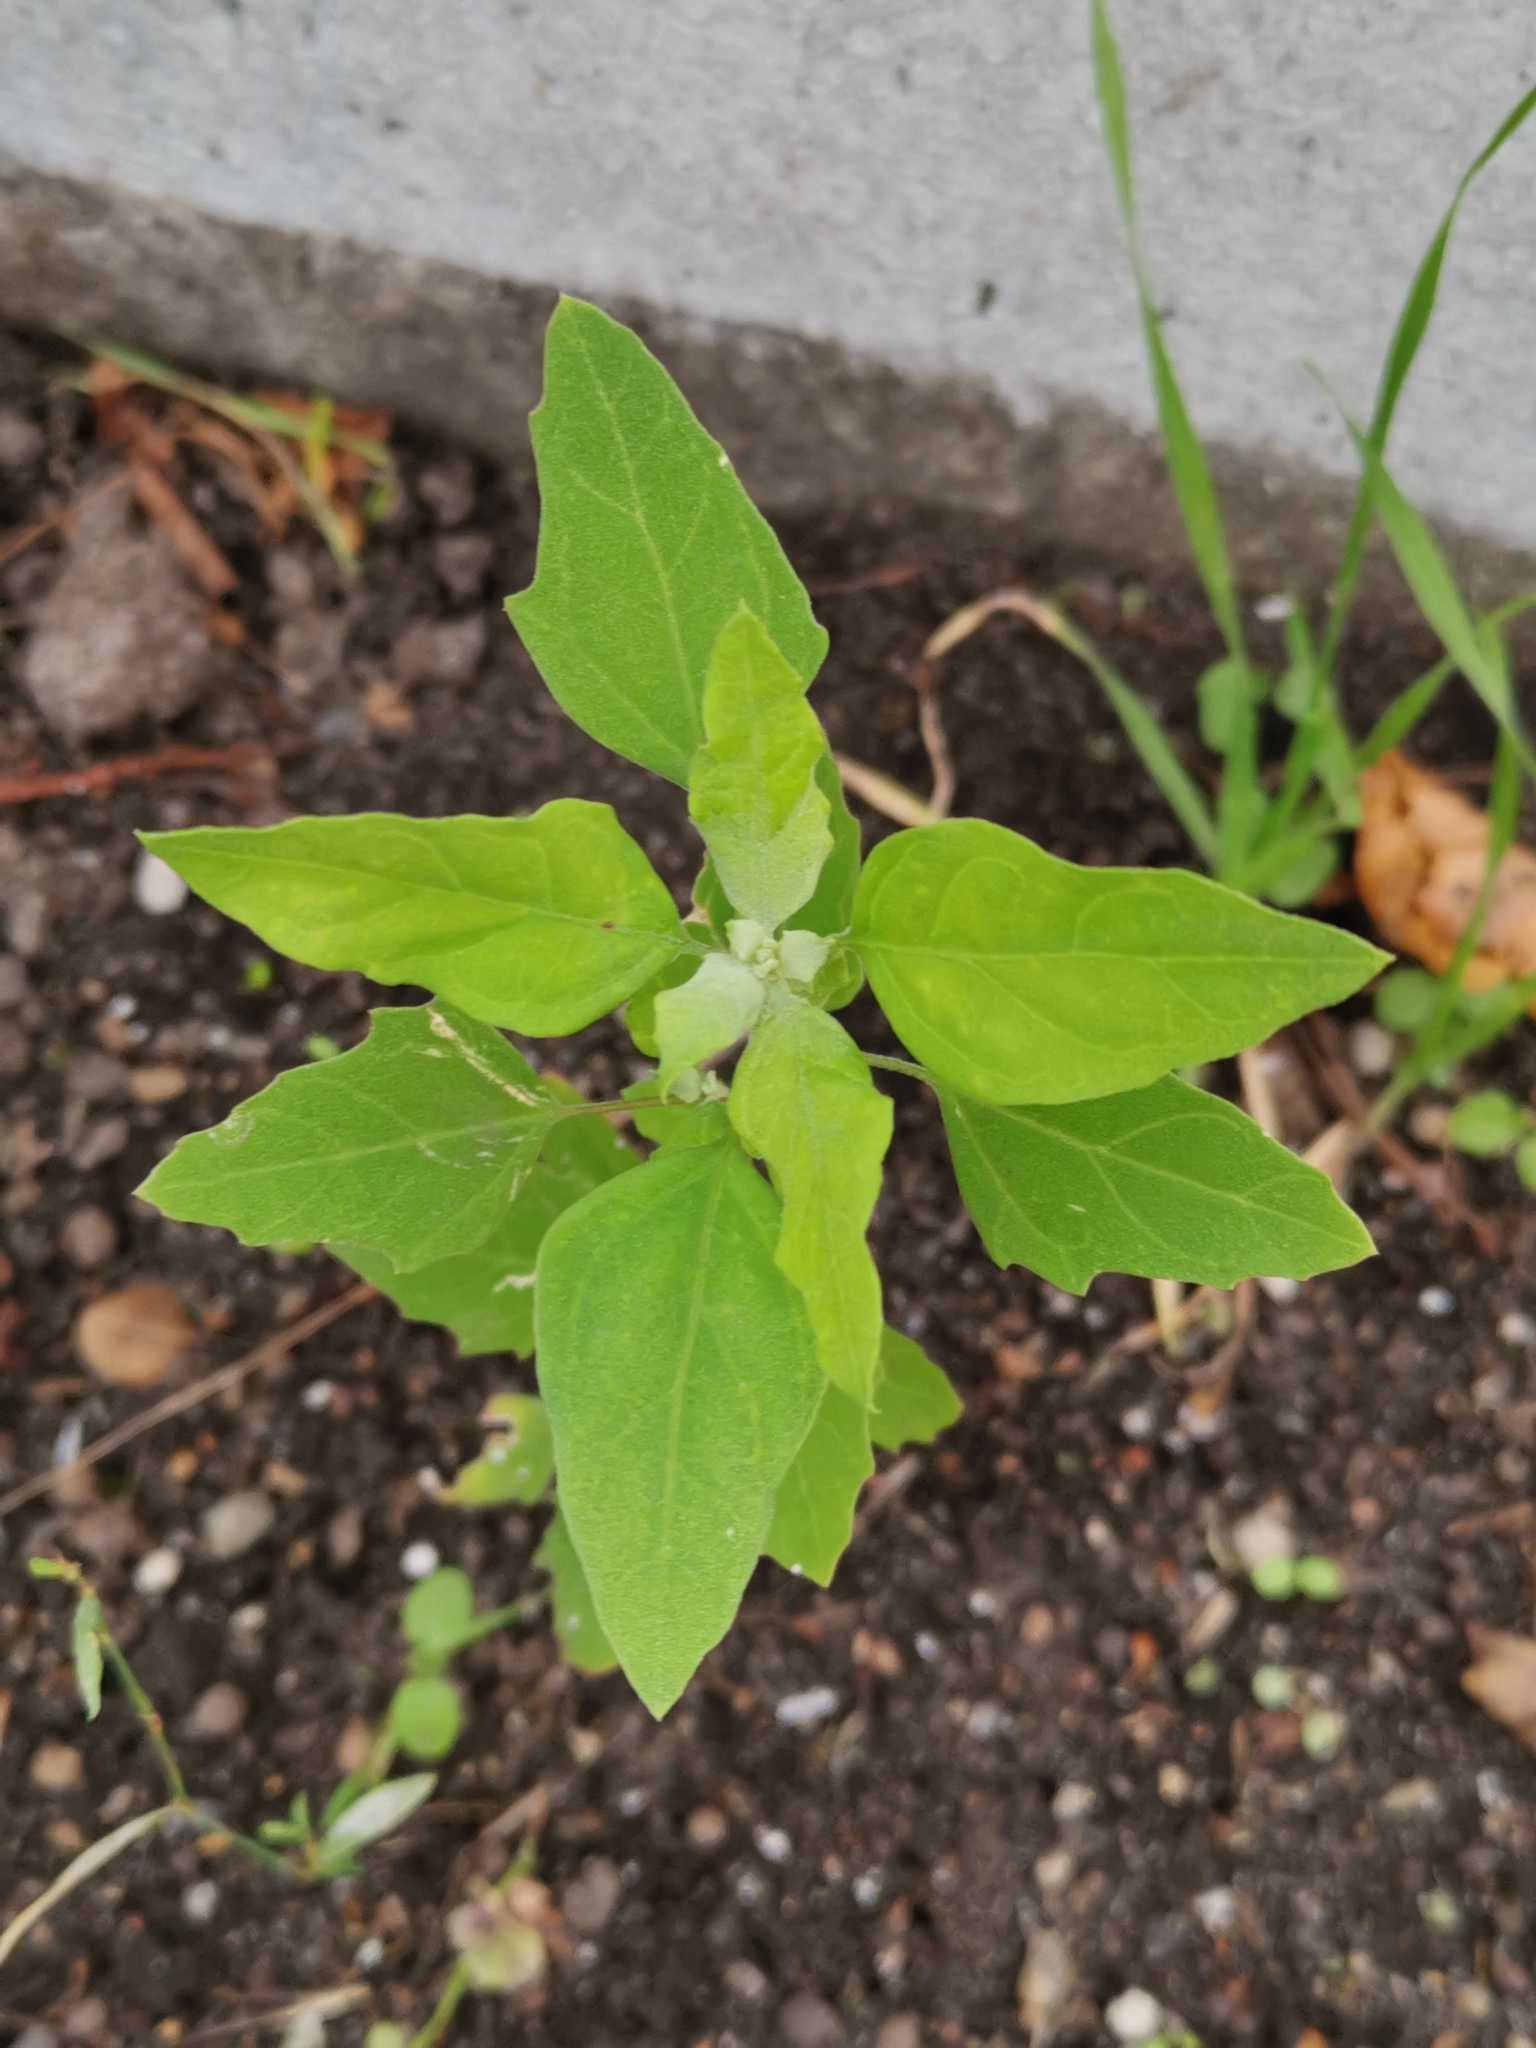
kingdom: Plantae
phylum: Tracheophyta
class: Magnoliopsida
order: Caryophyllales
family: Amaranthaceae
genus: Chenopodium
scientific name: Chenopodium album
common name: Fat-hen
